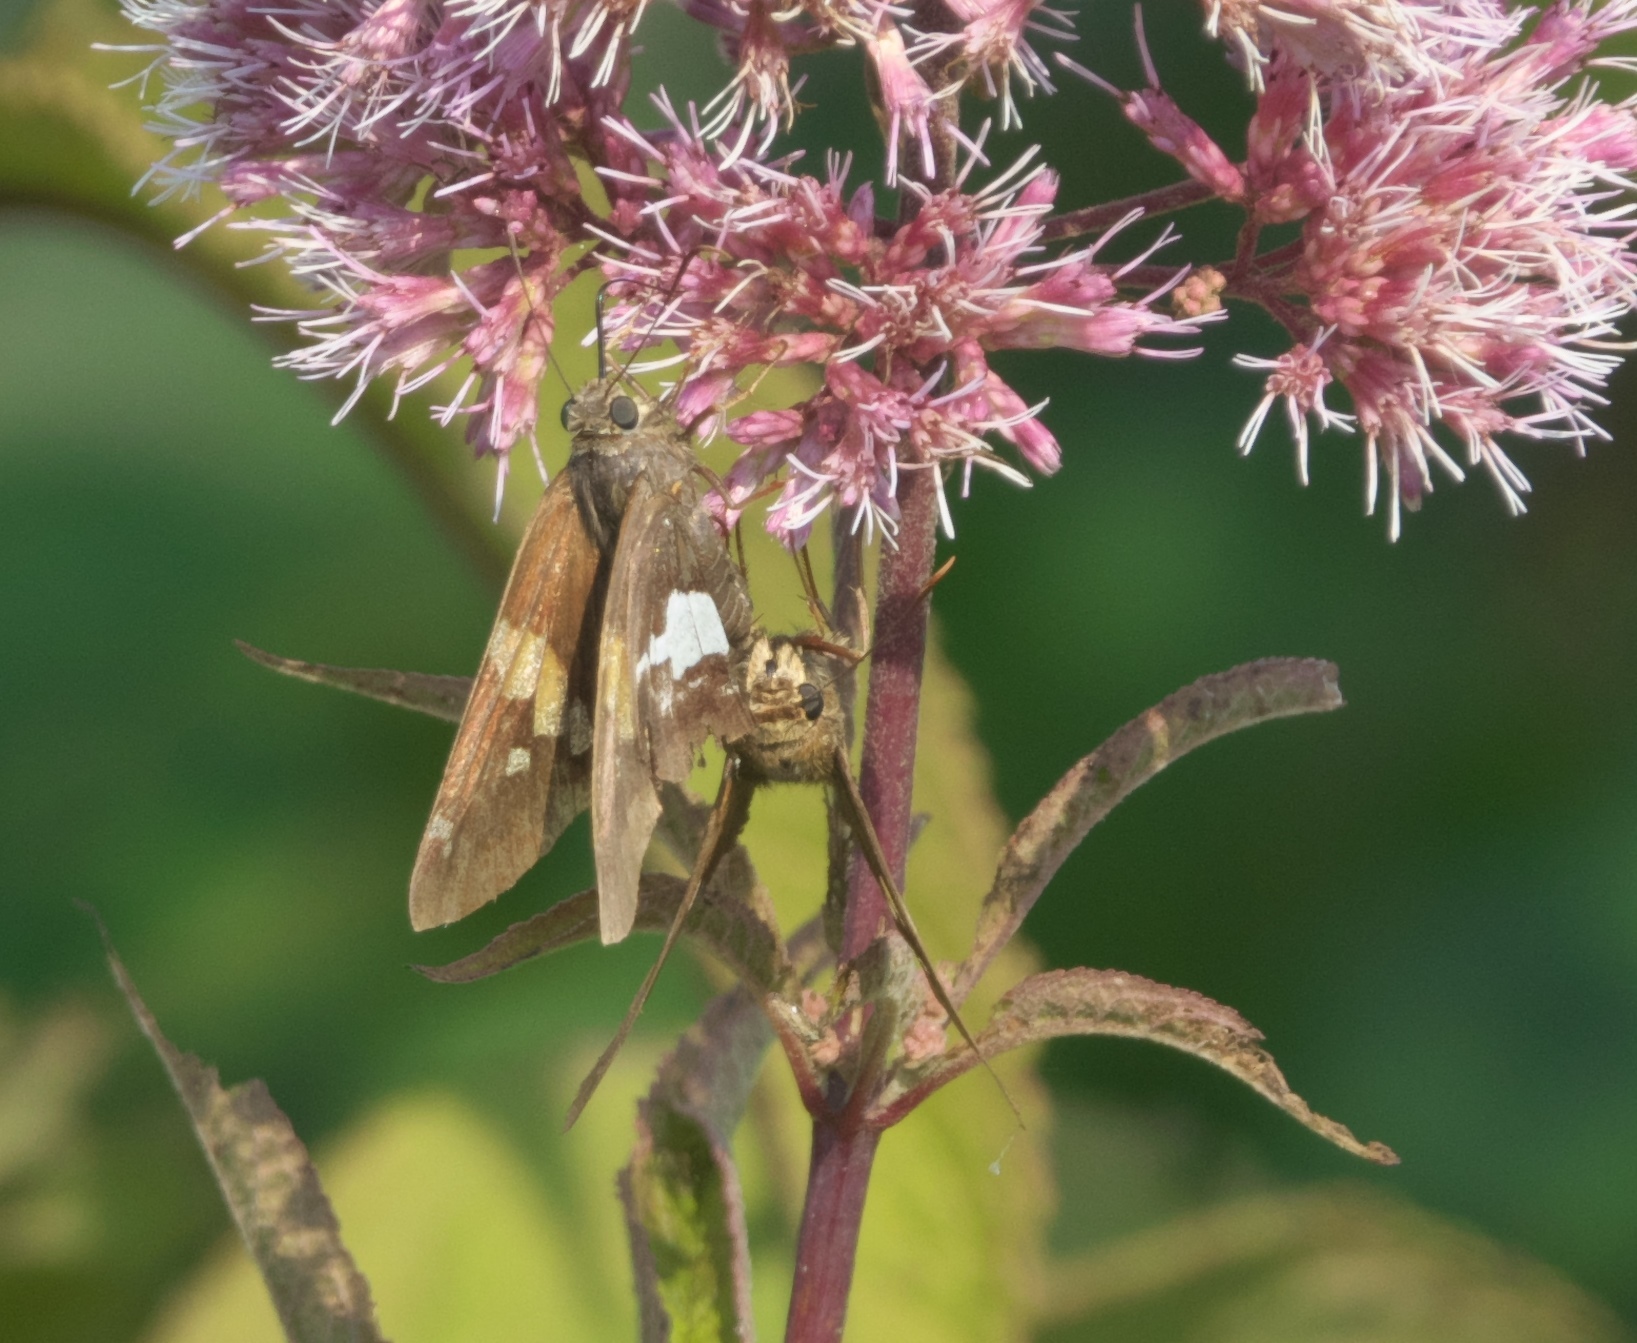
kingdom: Animalia
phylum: Arthropoda
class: Insecta
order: Lepidoptera
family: Hesperiidae
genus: Epargyreus
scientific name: Epargyreus clarus
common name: Silver-spotted skipper
